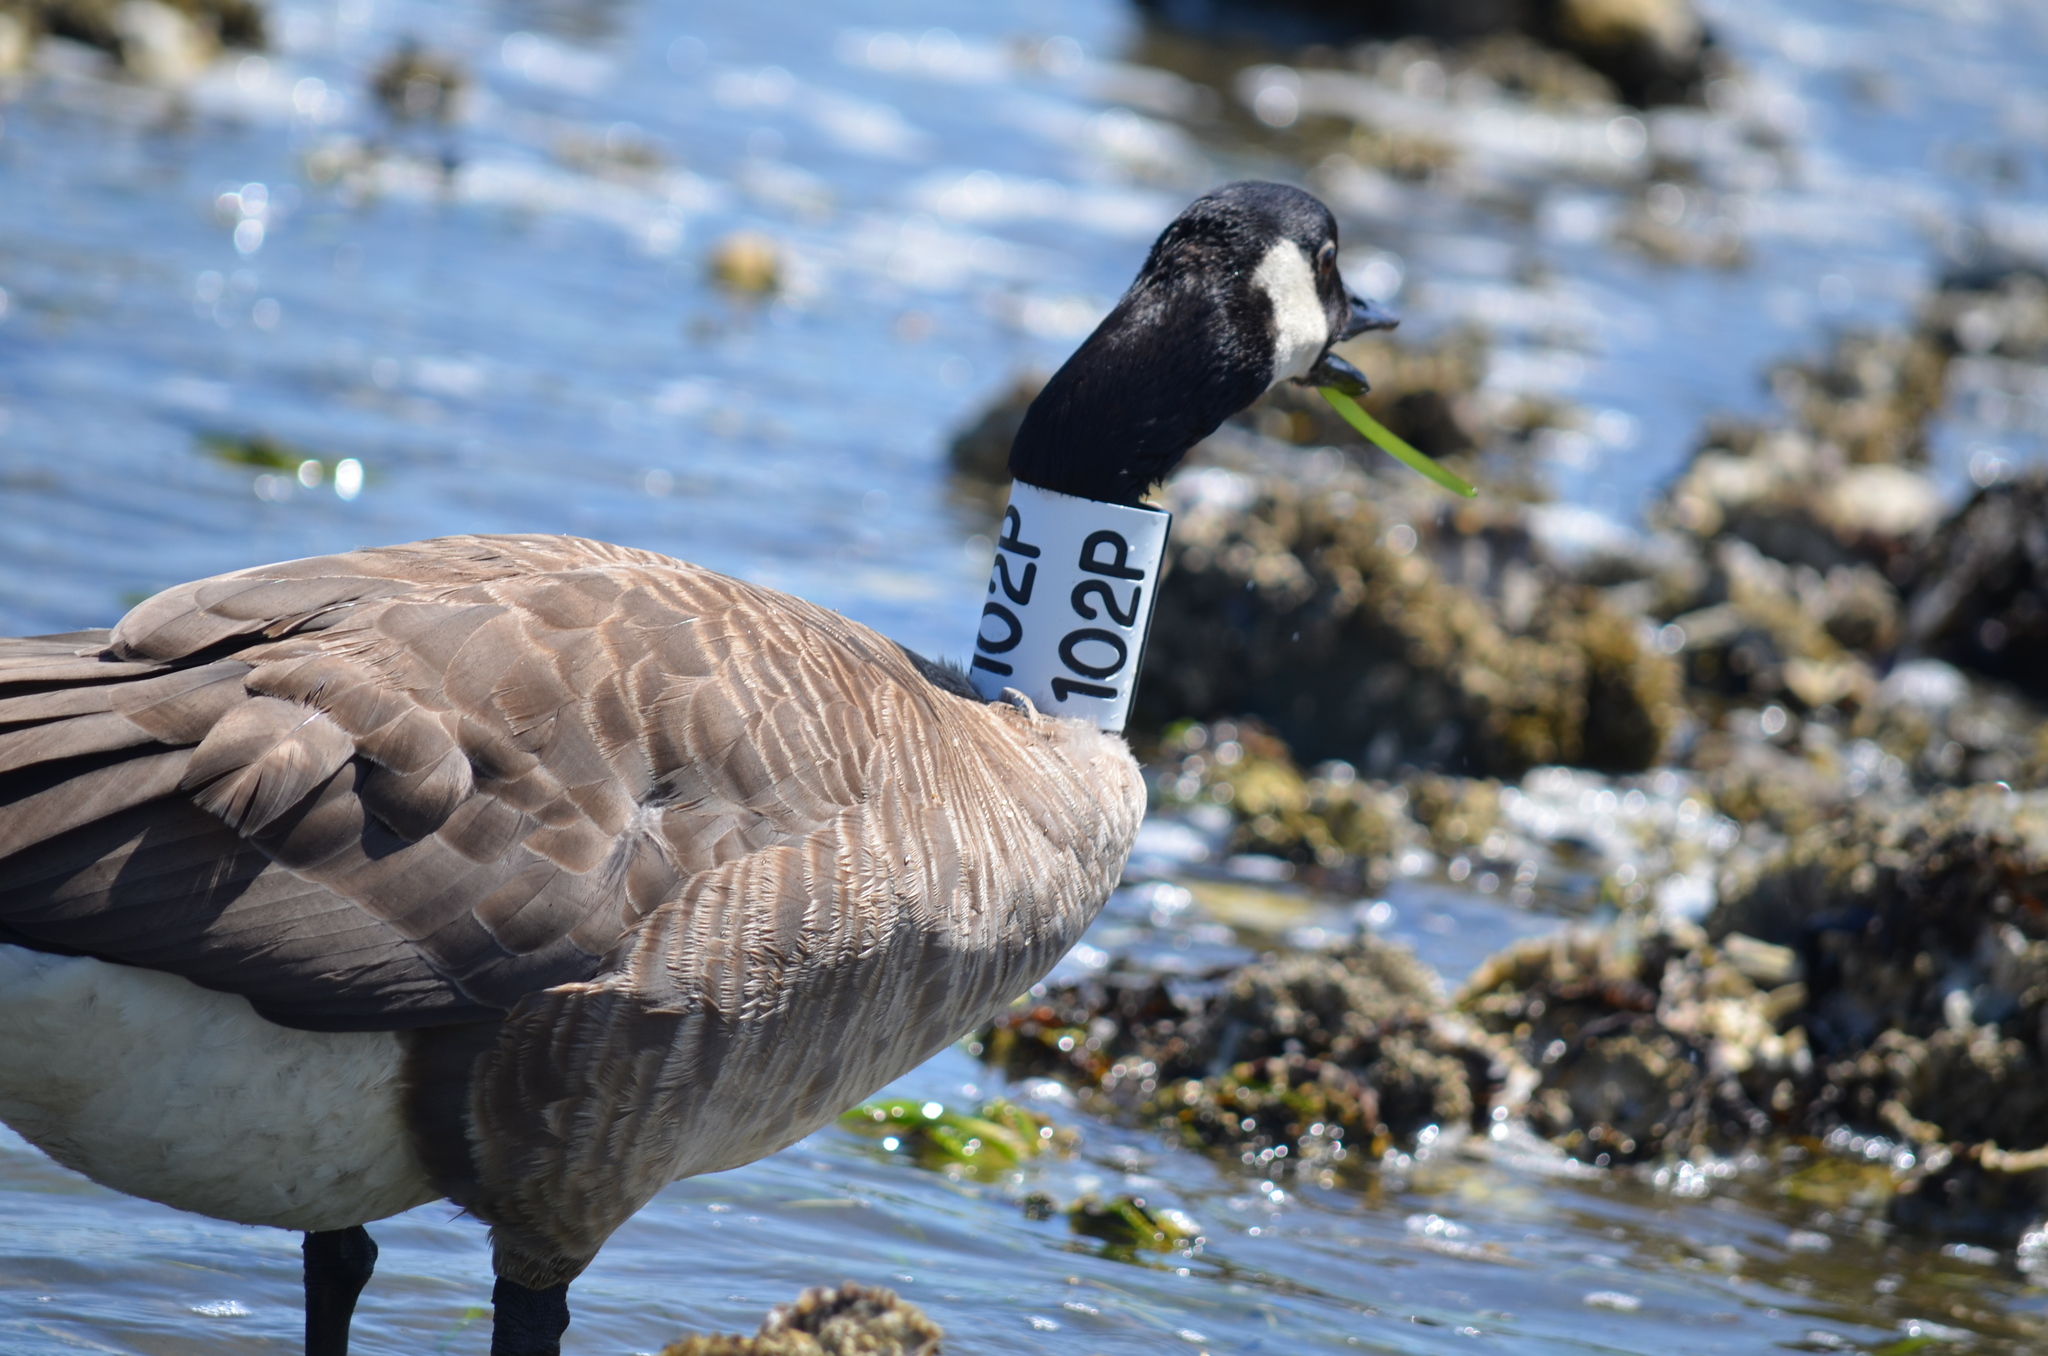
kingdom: Animalia
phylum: Chordata
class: Aves
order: Anseriformes
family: Anatidae
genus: Branta
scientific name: Branta canadensis
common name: Canada goose
